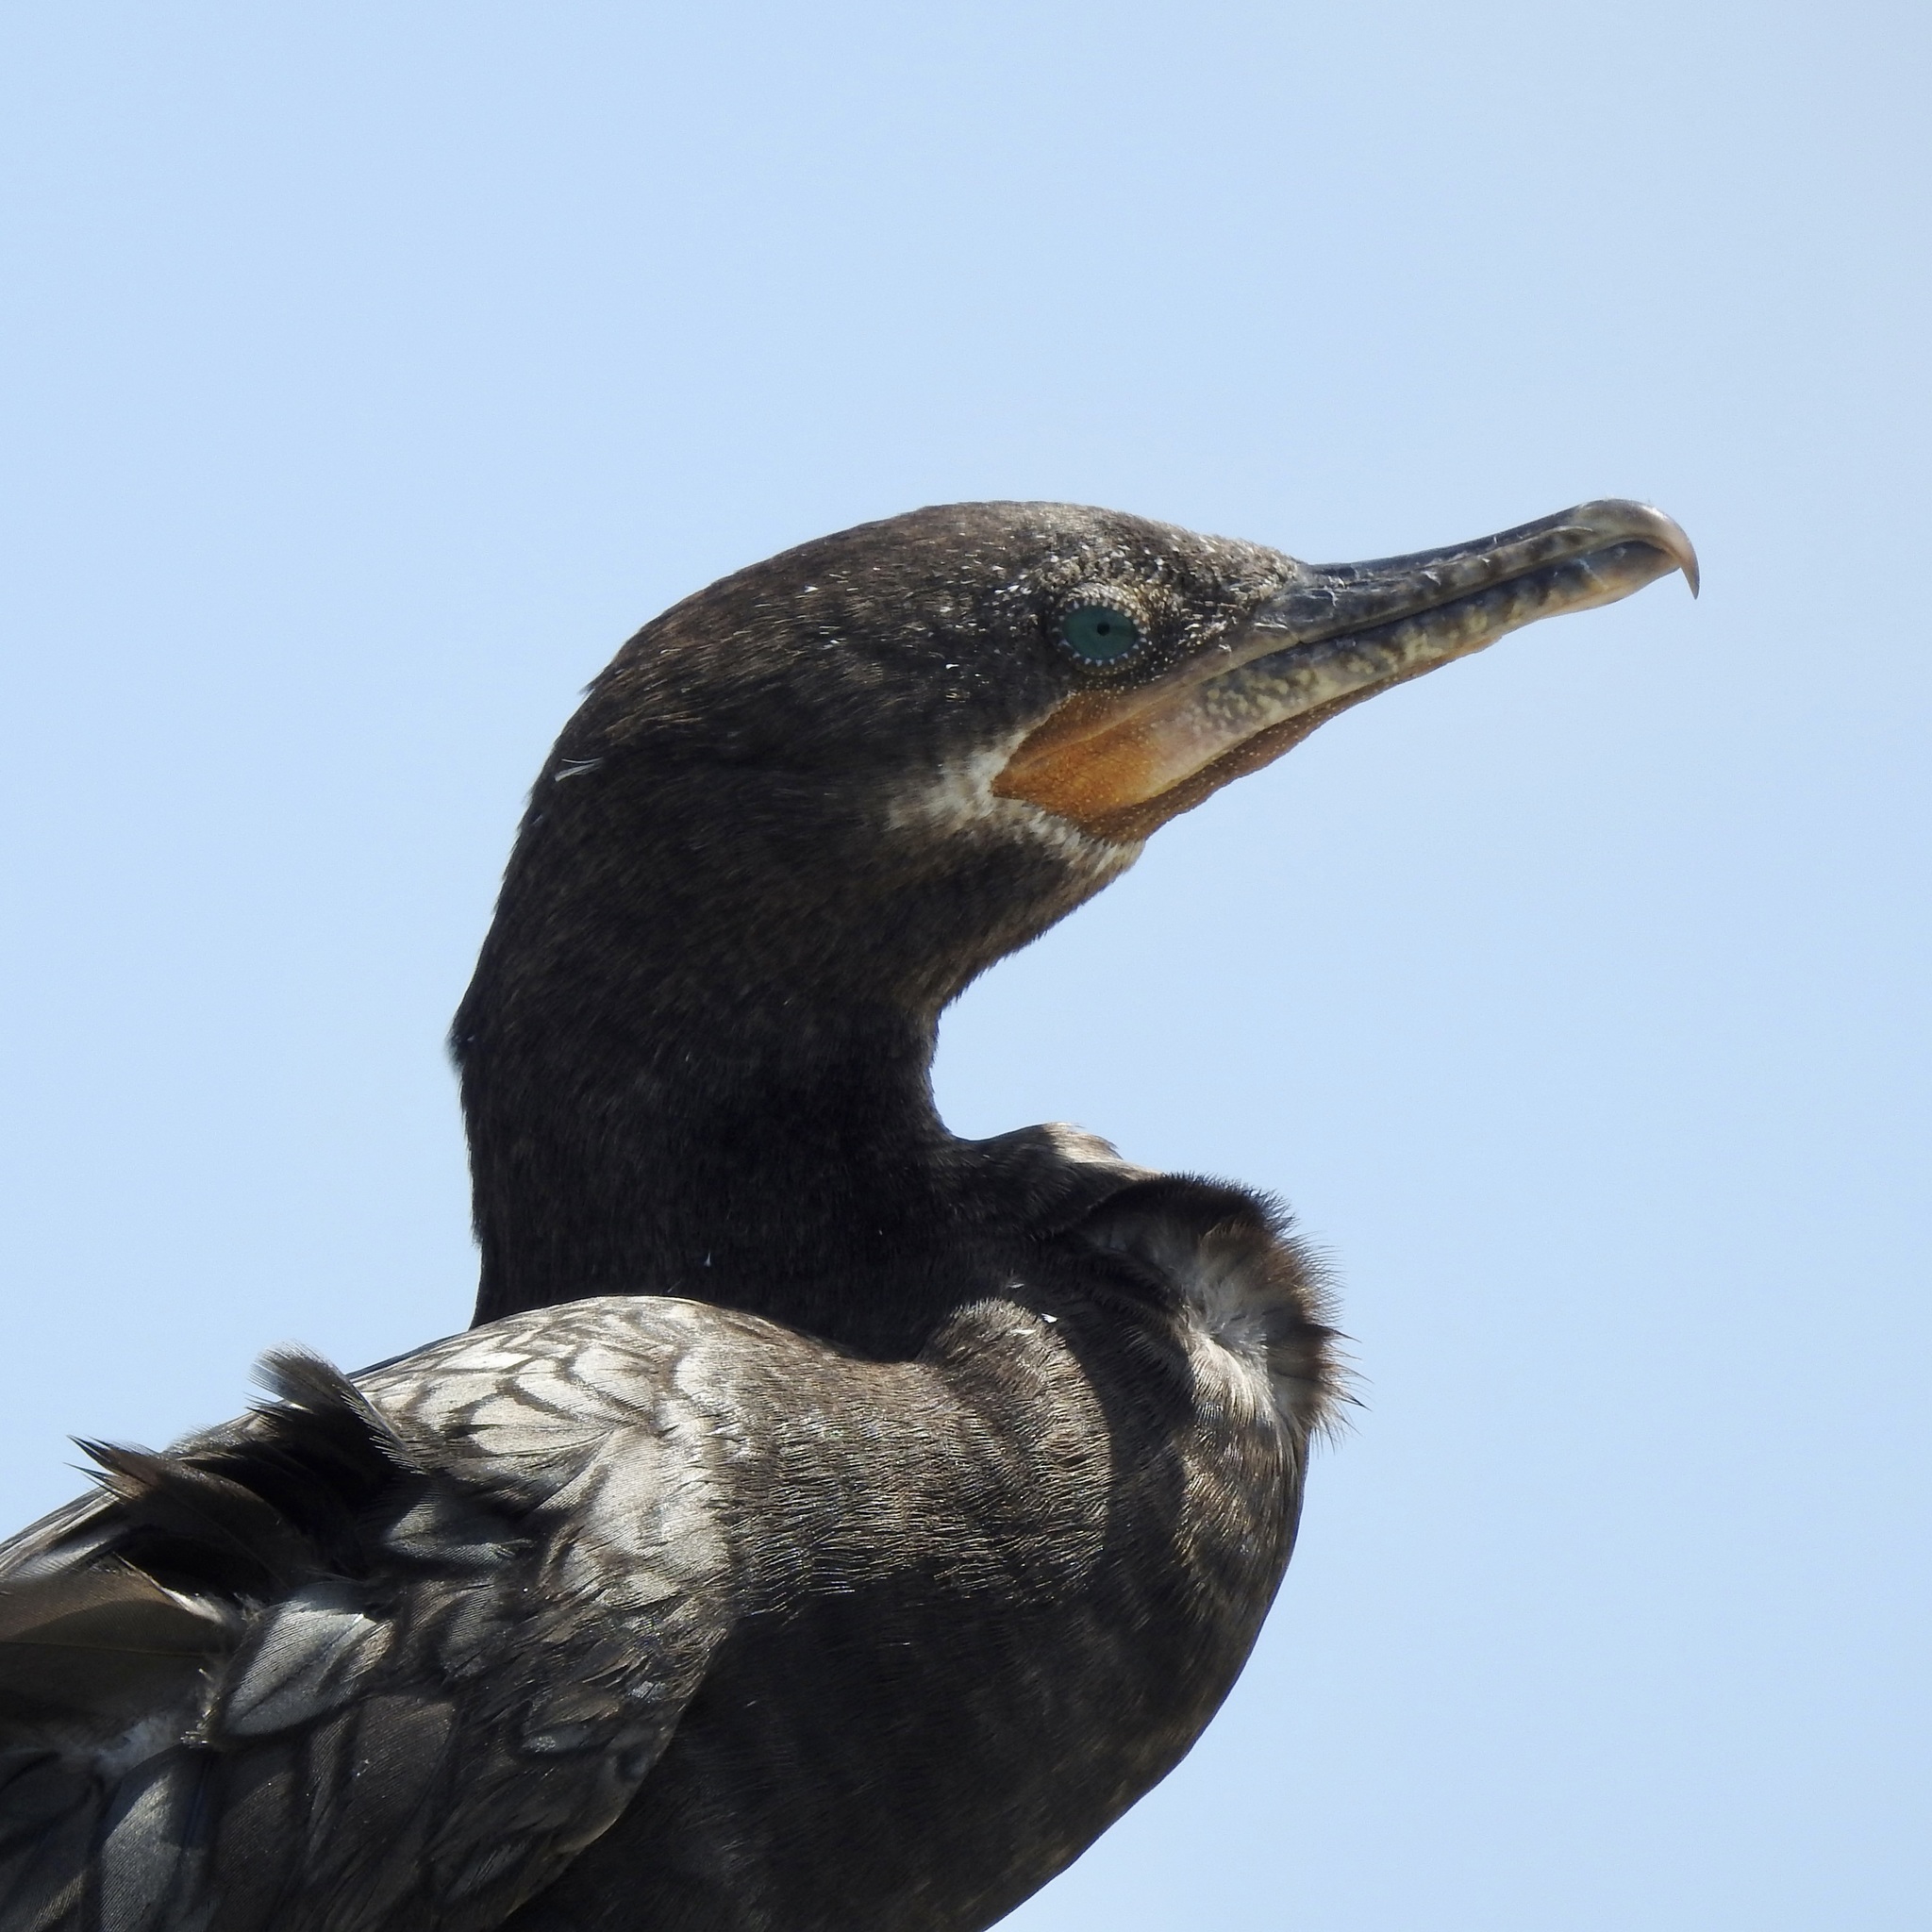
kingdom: Animalia
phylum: Chordata
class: Aves
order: Suliformes
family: Phalacrocoracidae
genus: Phalacrocorax
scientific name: Phalacrocorax brasilianus
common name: Neotropic cormorant
